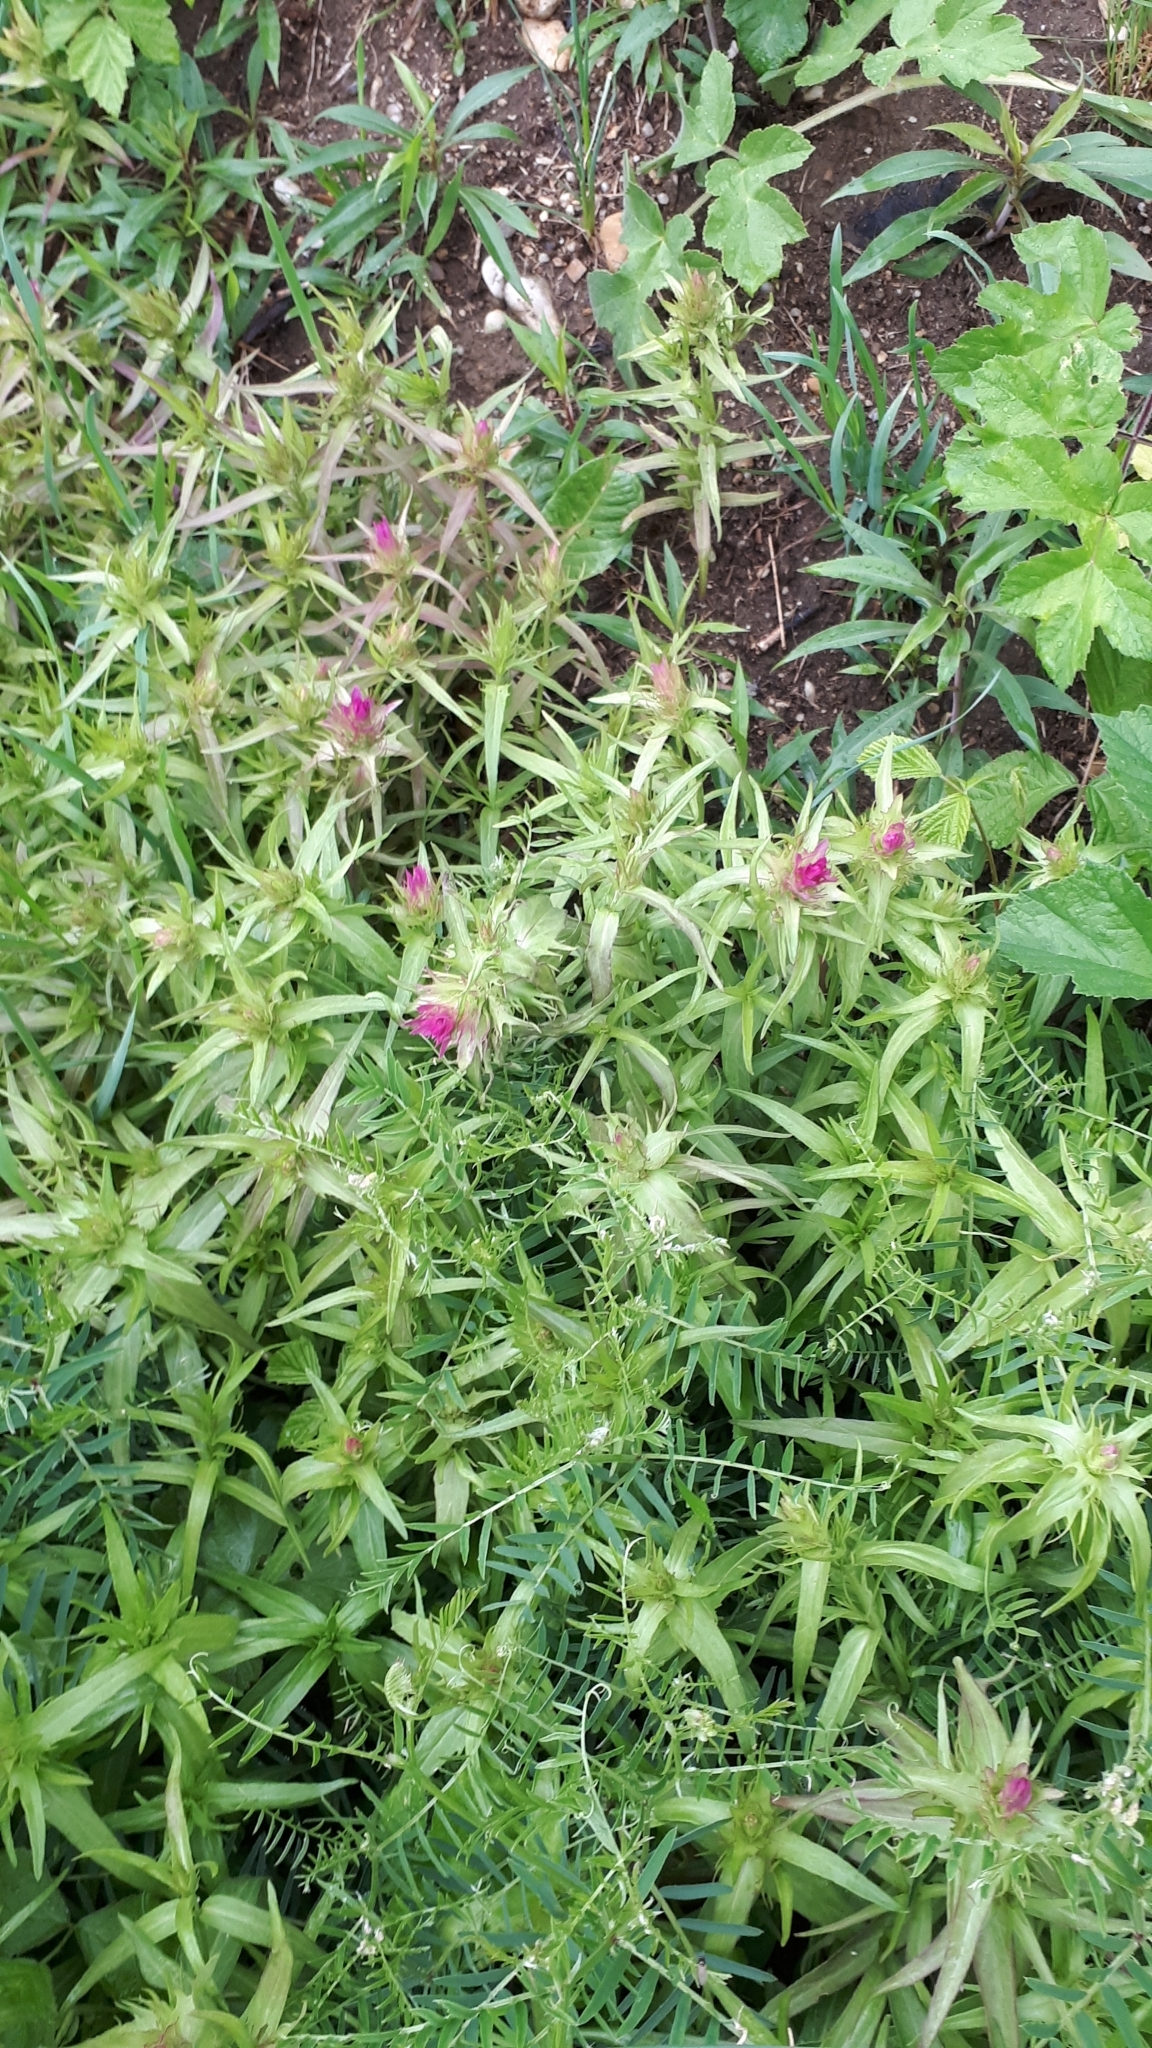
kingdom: Plantae
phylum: Tracheophyta
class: Magnoliopsida
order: Lamiales
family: Orobanchaceae
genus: Melampyrum
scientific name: Melampyrum arvense
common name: Field cow-wheat
